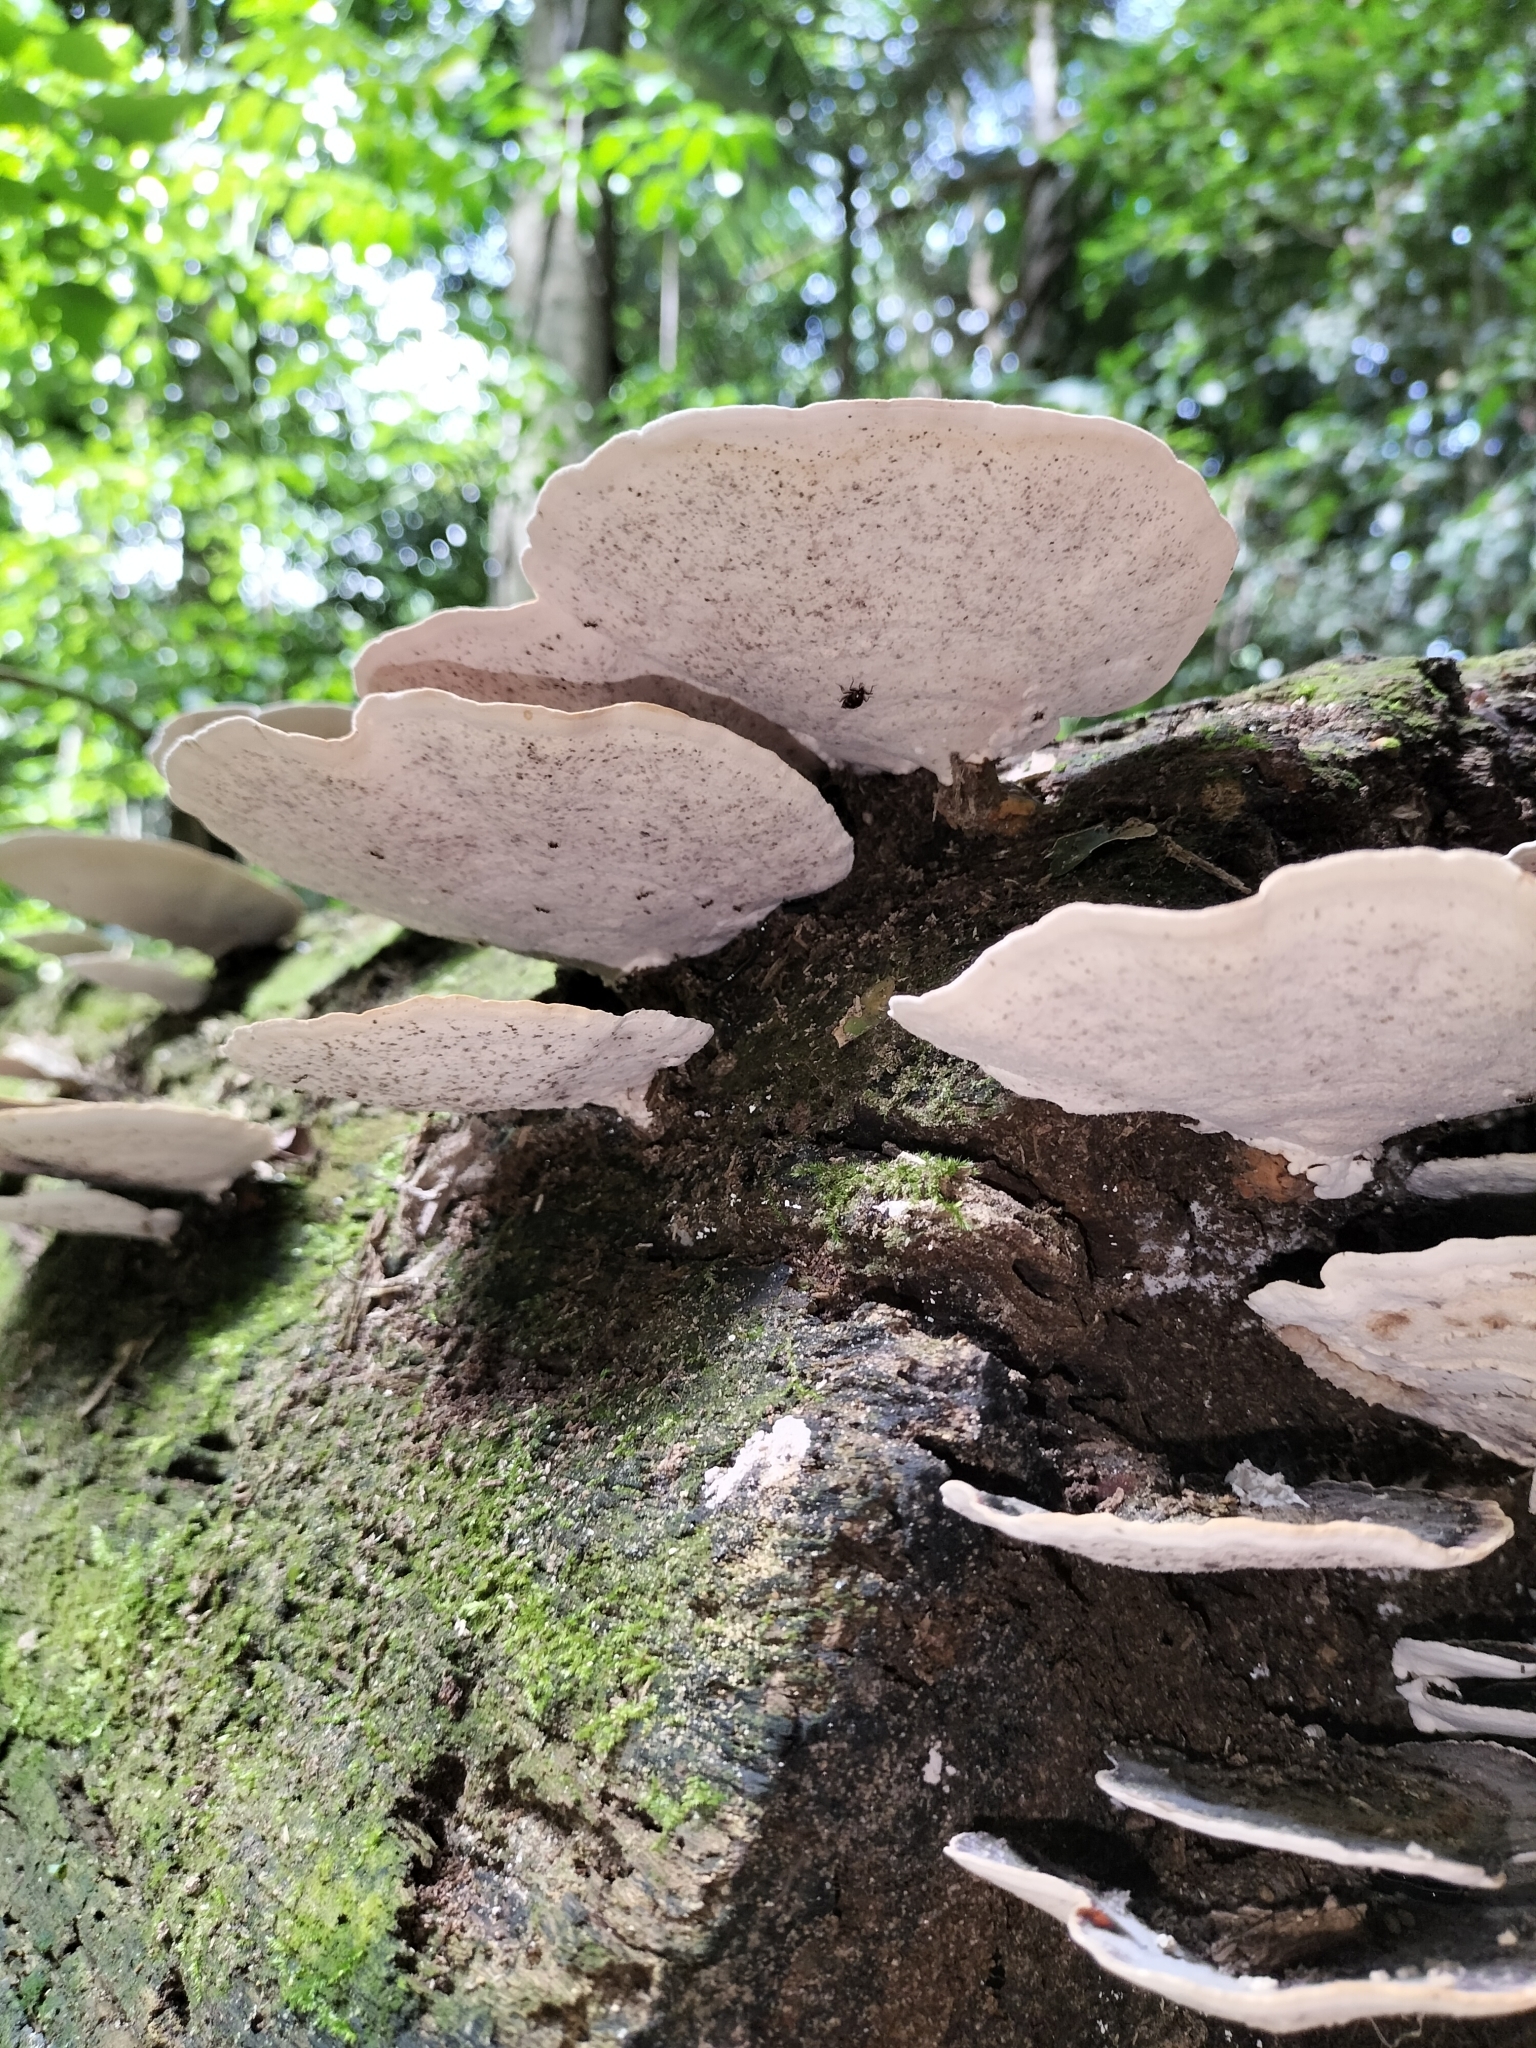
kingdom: Fungi
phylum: Basidiomycota
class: Agaricomycetes
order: Polyporales
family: Polyporaceae
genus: Microporus
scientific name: Microporus affinis
